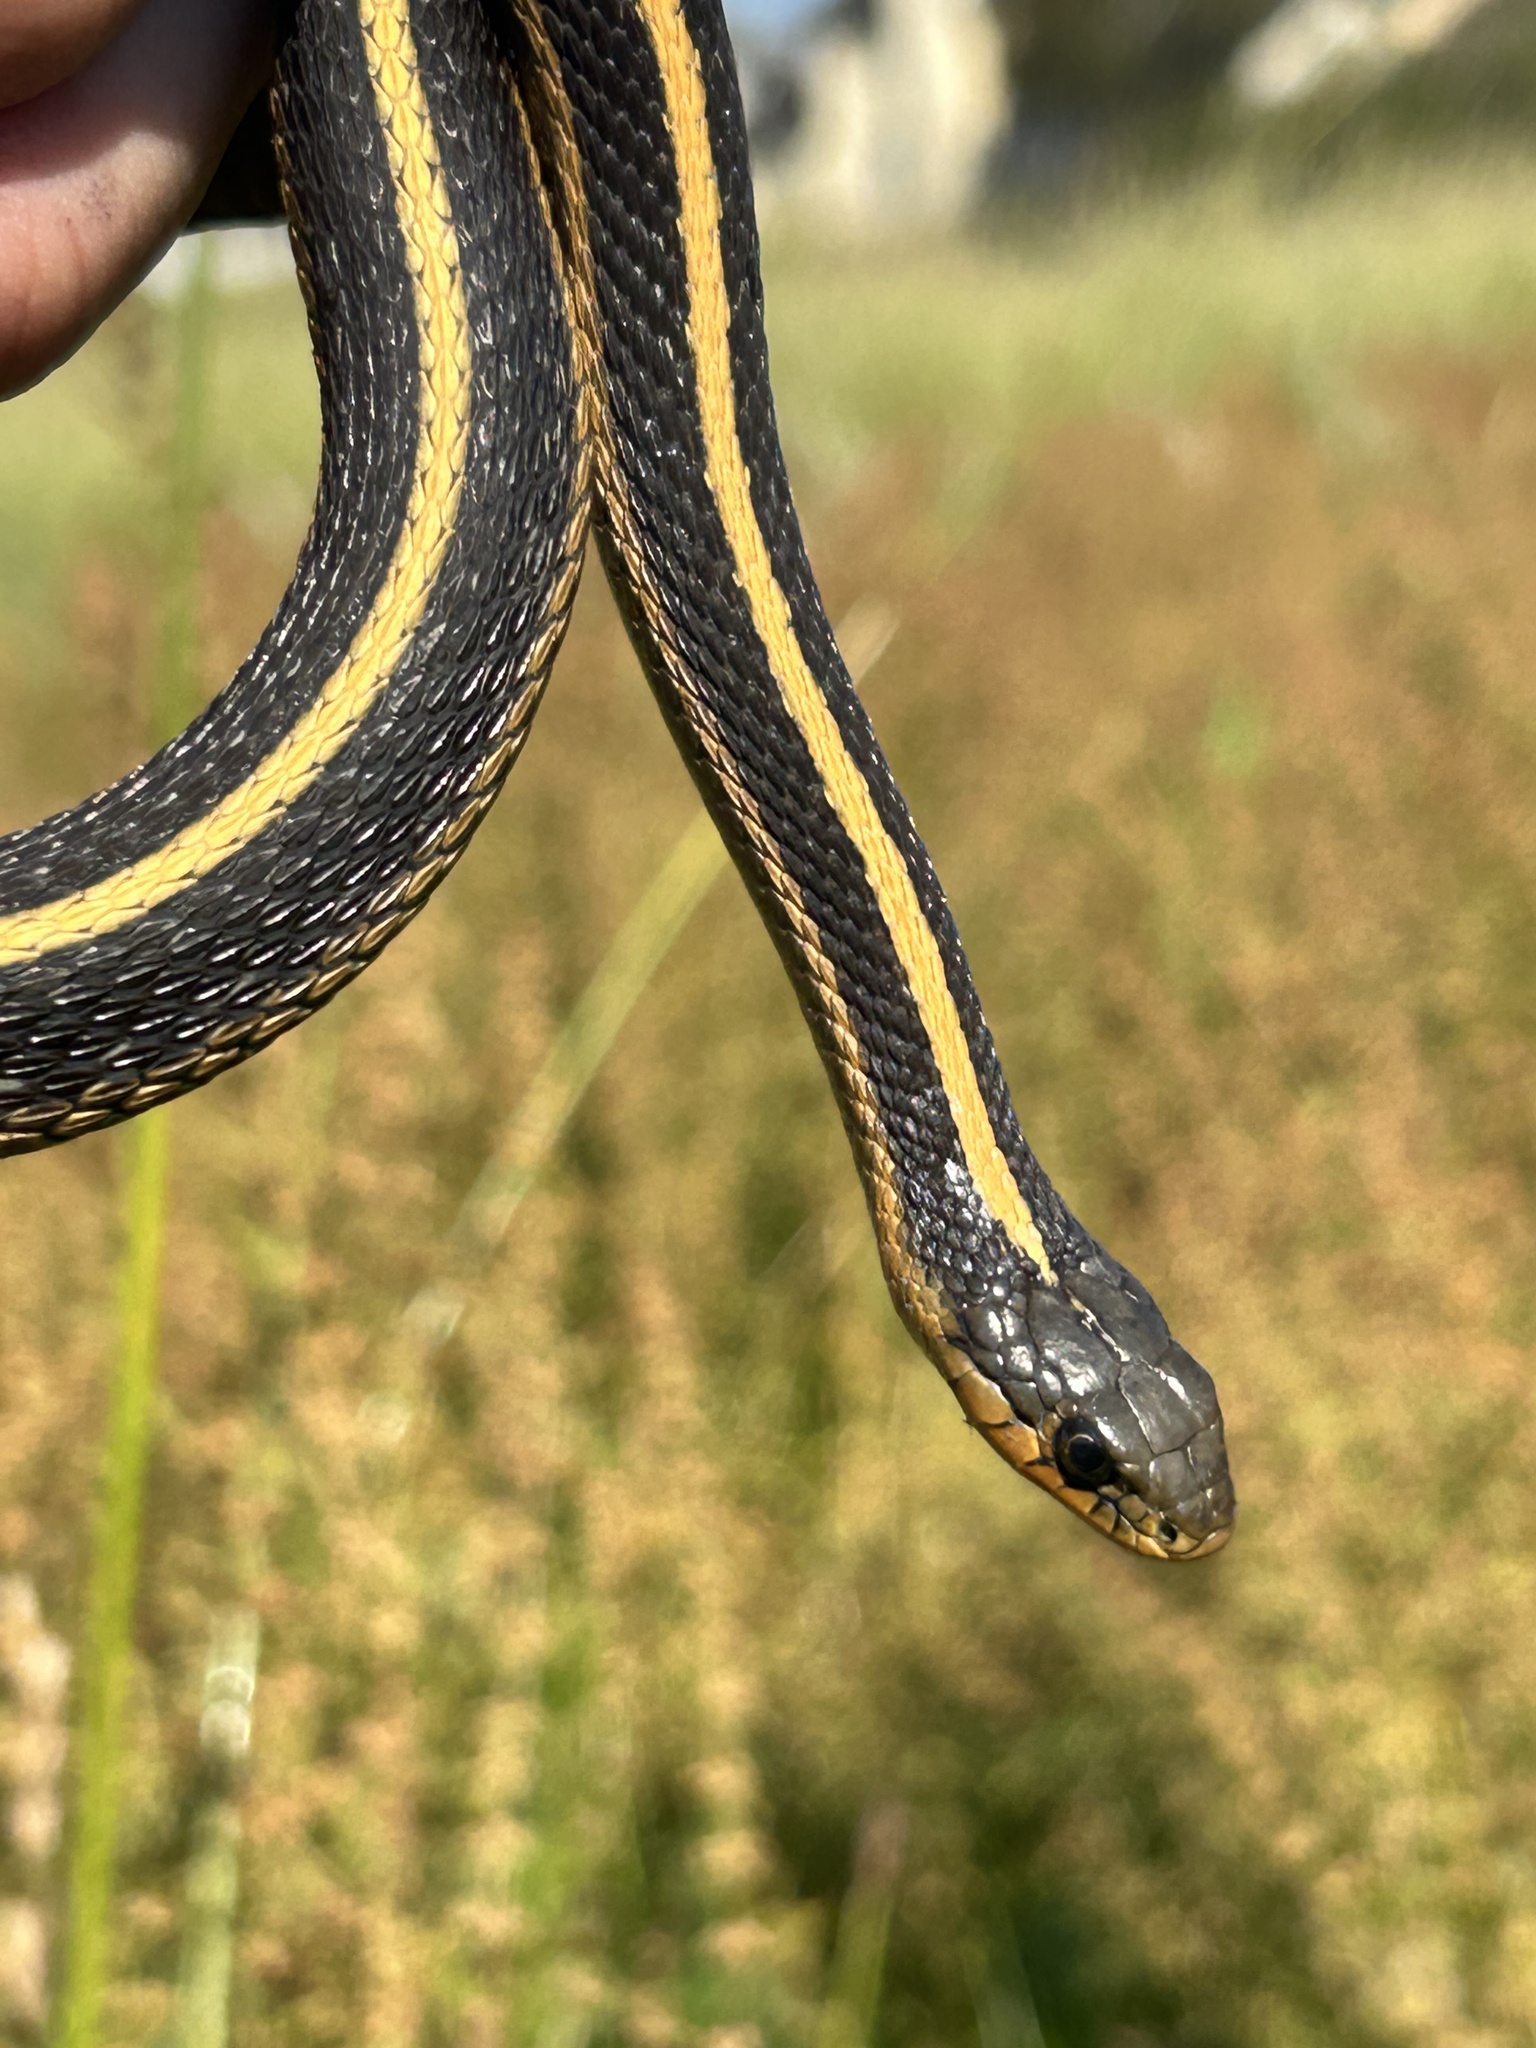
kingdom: Animalia
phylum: Chordata
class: Squamata
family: Colubridae
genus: Thamnophis
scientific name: Thamnophis elegans
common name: Western terrestrial garter snake
